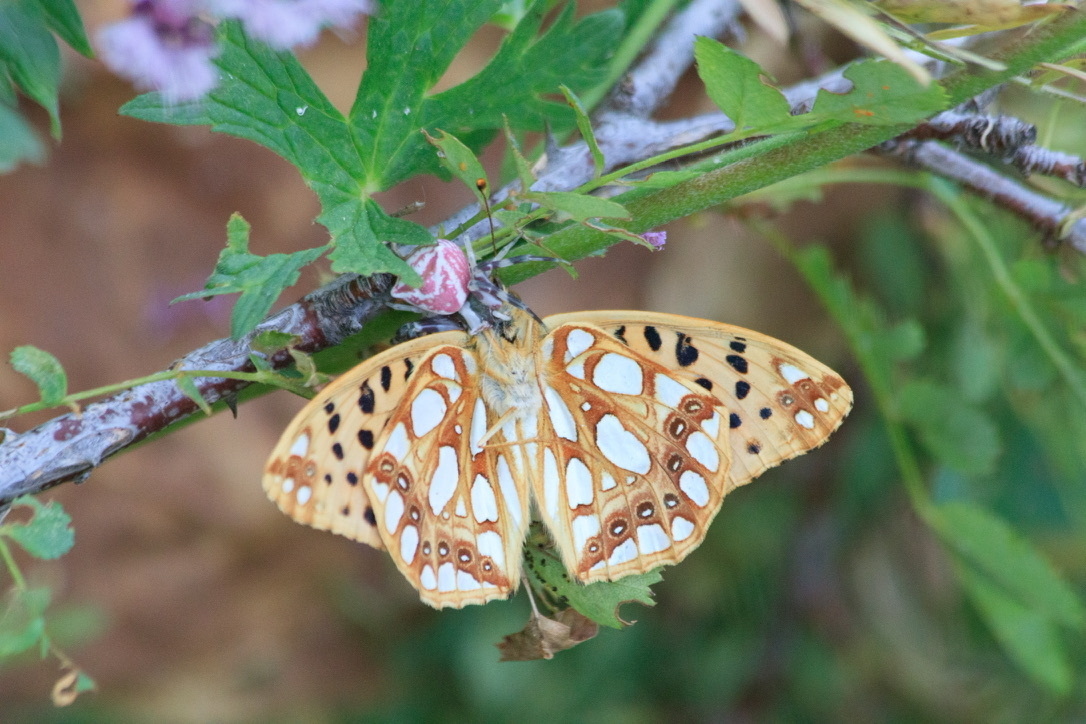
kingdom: Animalia
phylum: Arthropoda
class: Arachnida
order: Araneae
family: Thomisidae
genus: Thomisus
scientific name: Thomisus onustus
